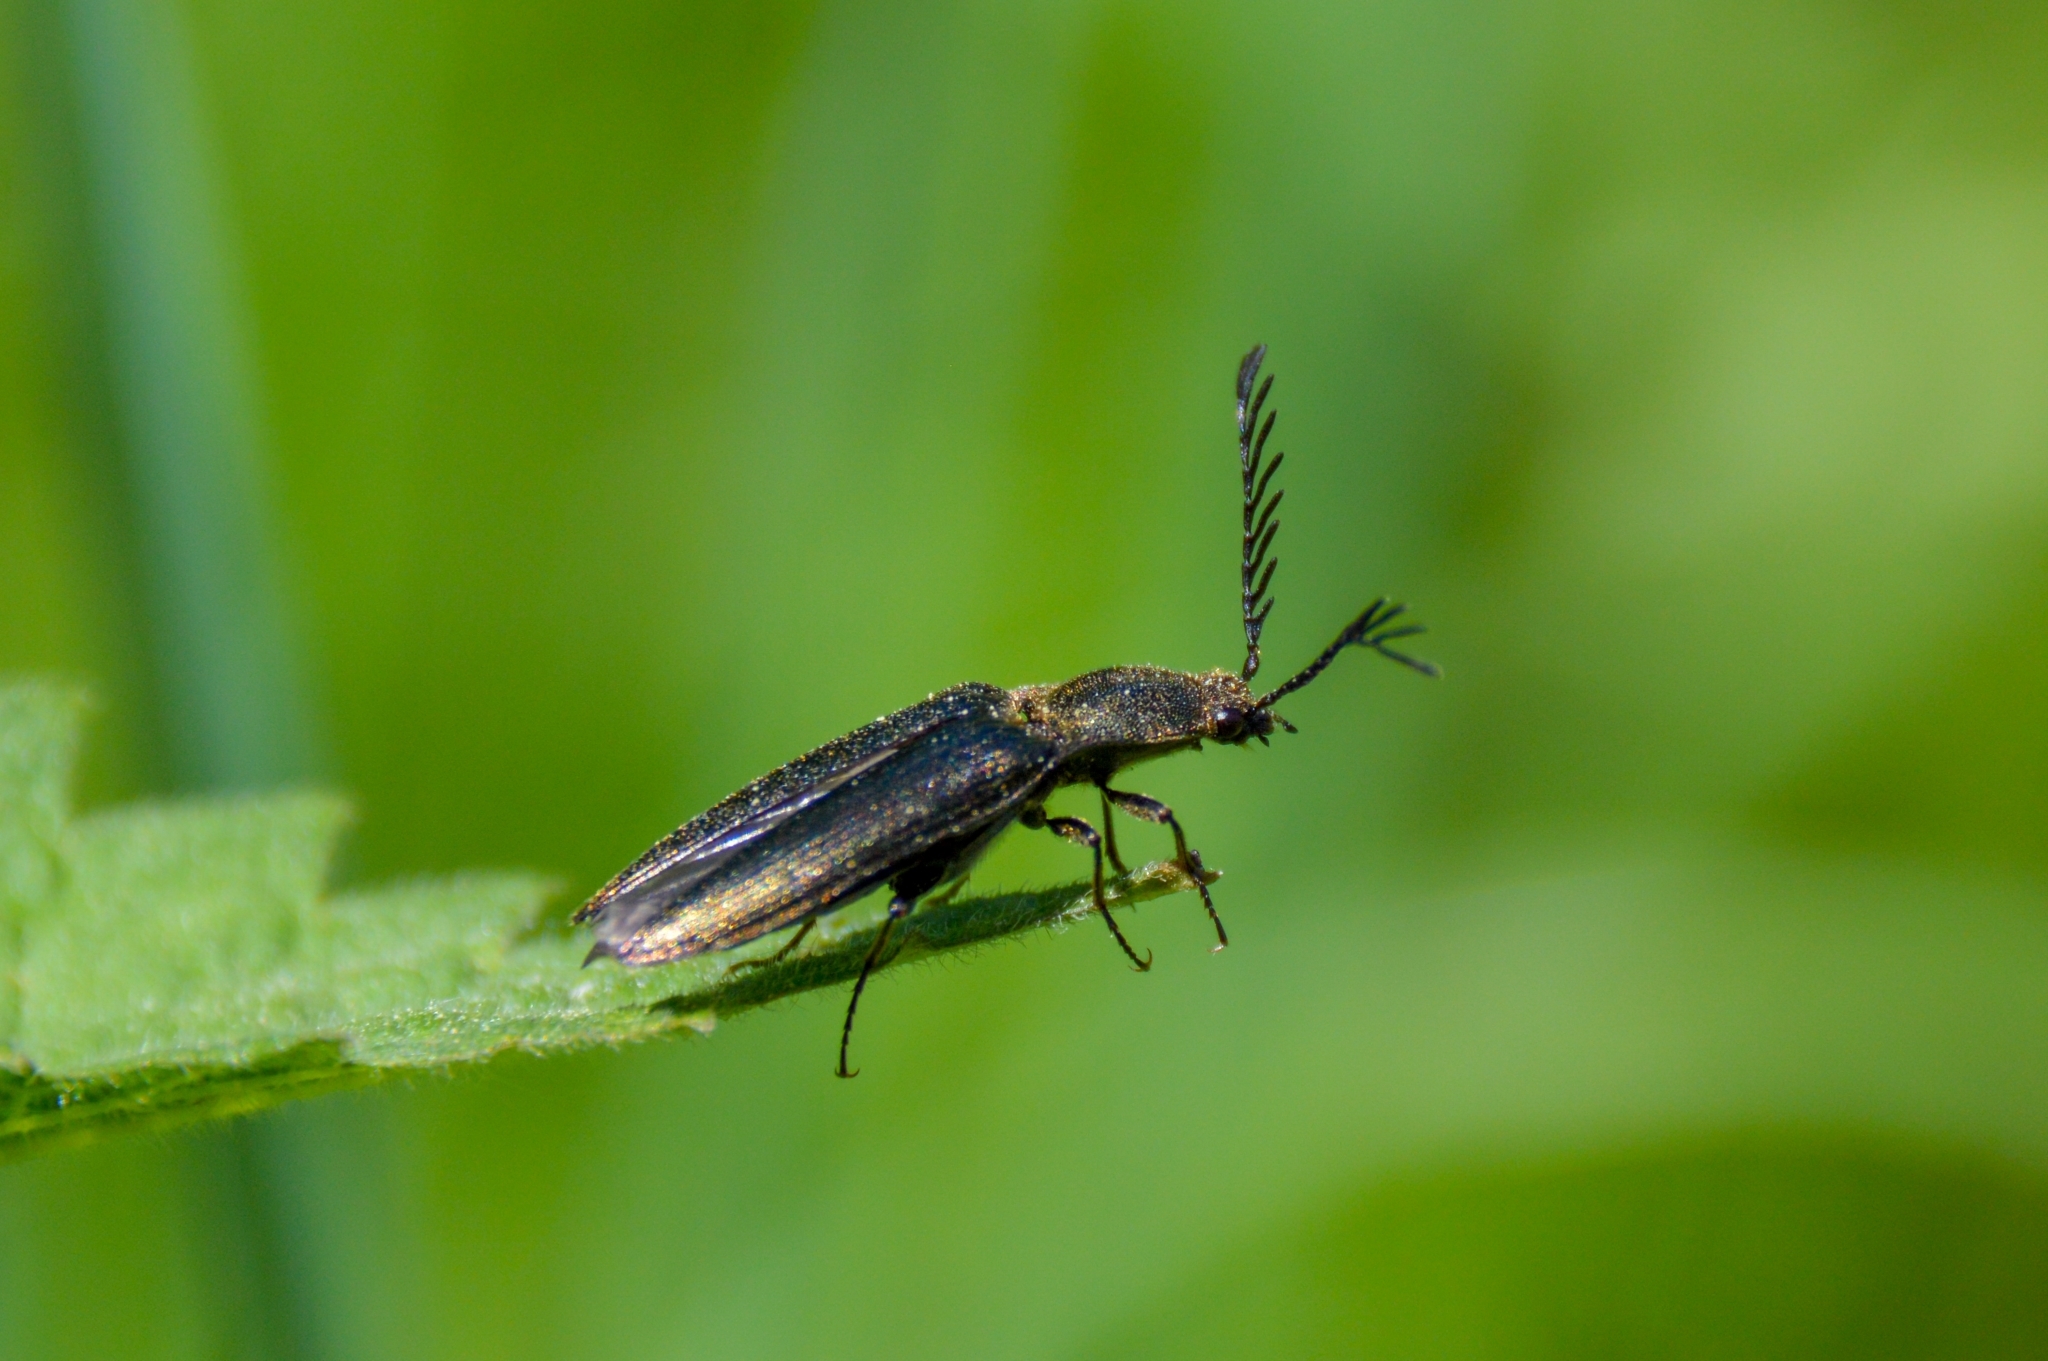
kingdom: Animalia
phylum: Arthropoda
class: Insecta
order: Coleoptera
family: Elateridae
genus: Ctenicera
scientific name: Ctenicera pectinicornis
